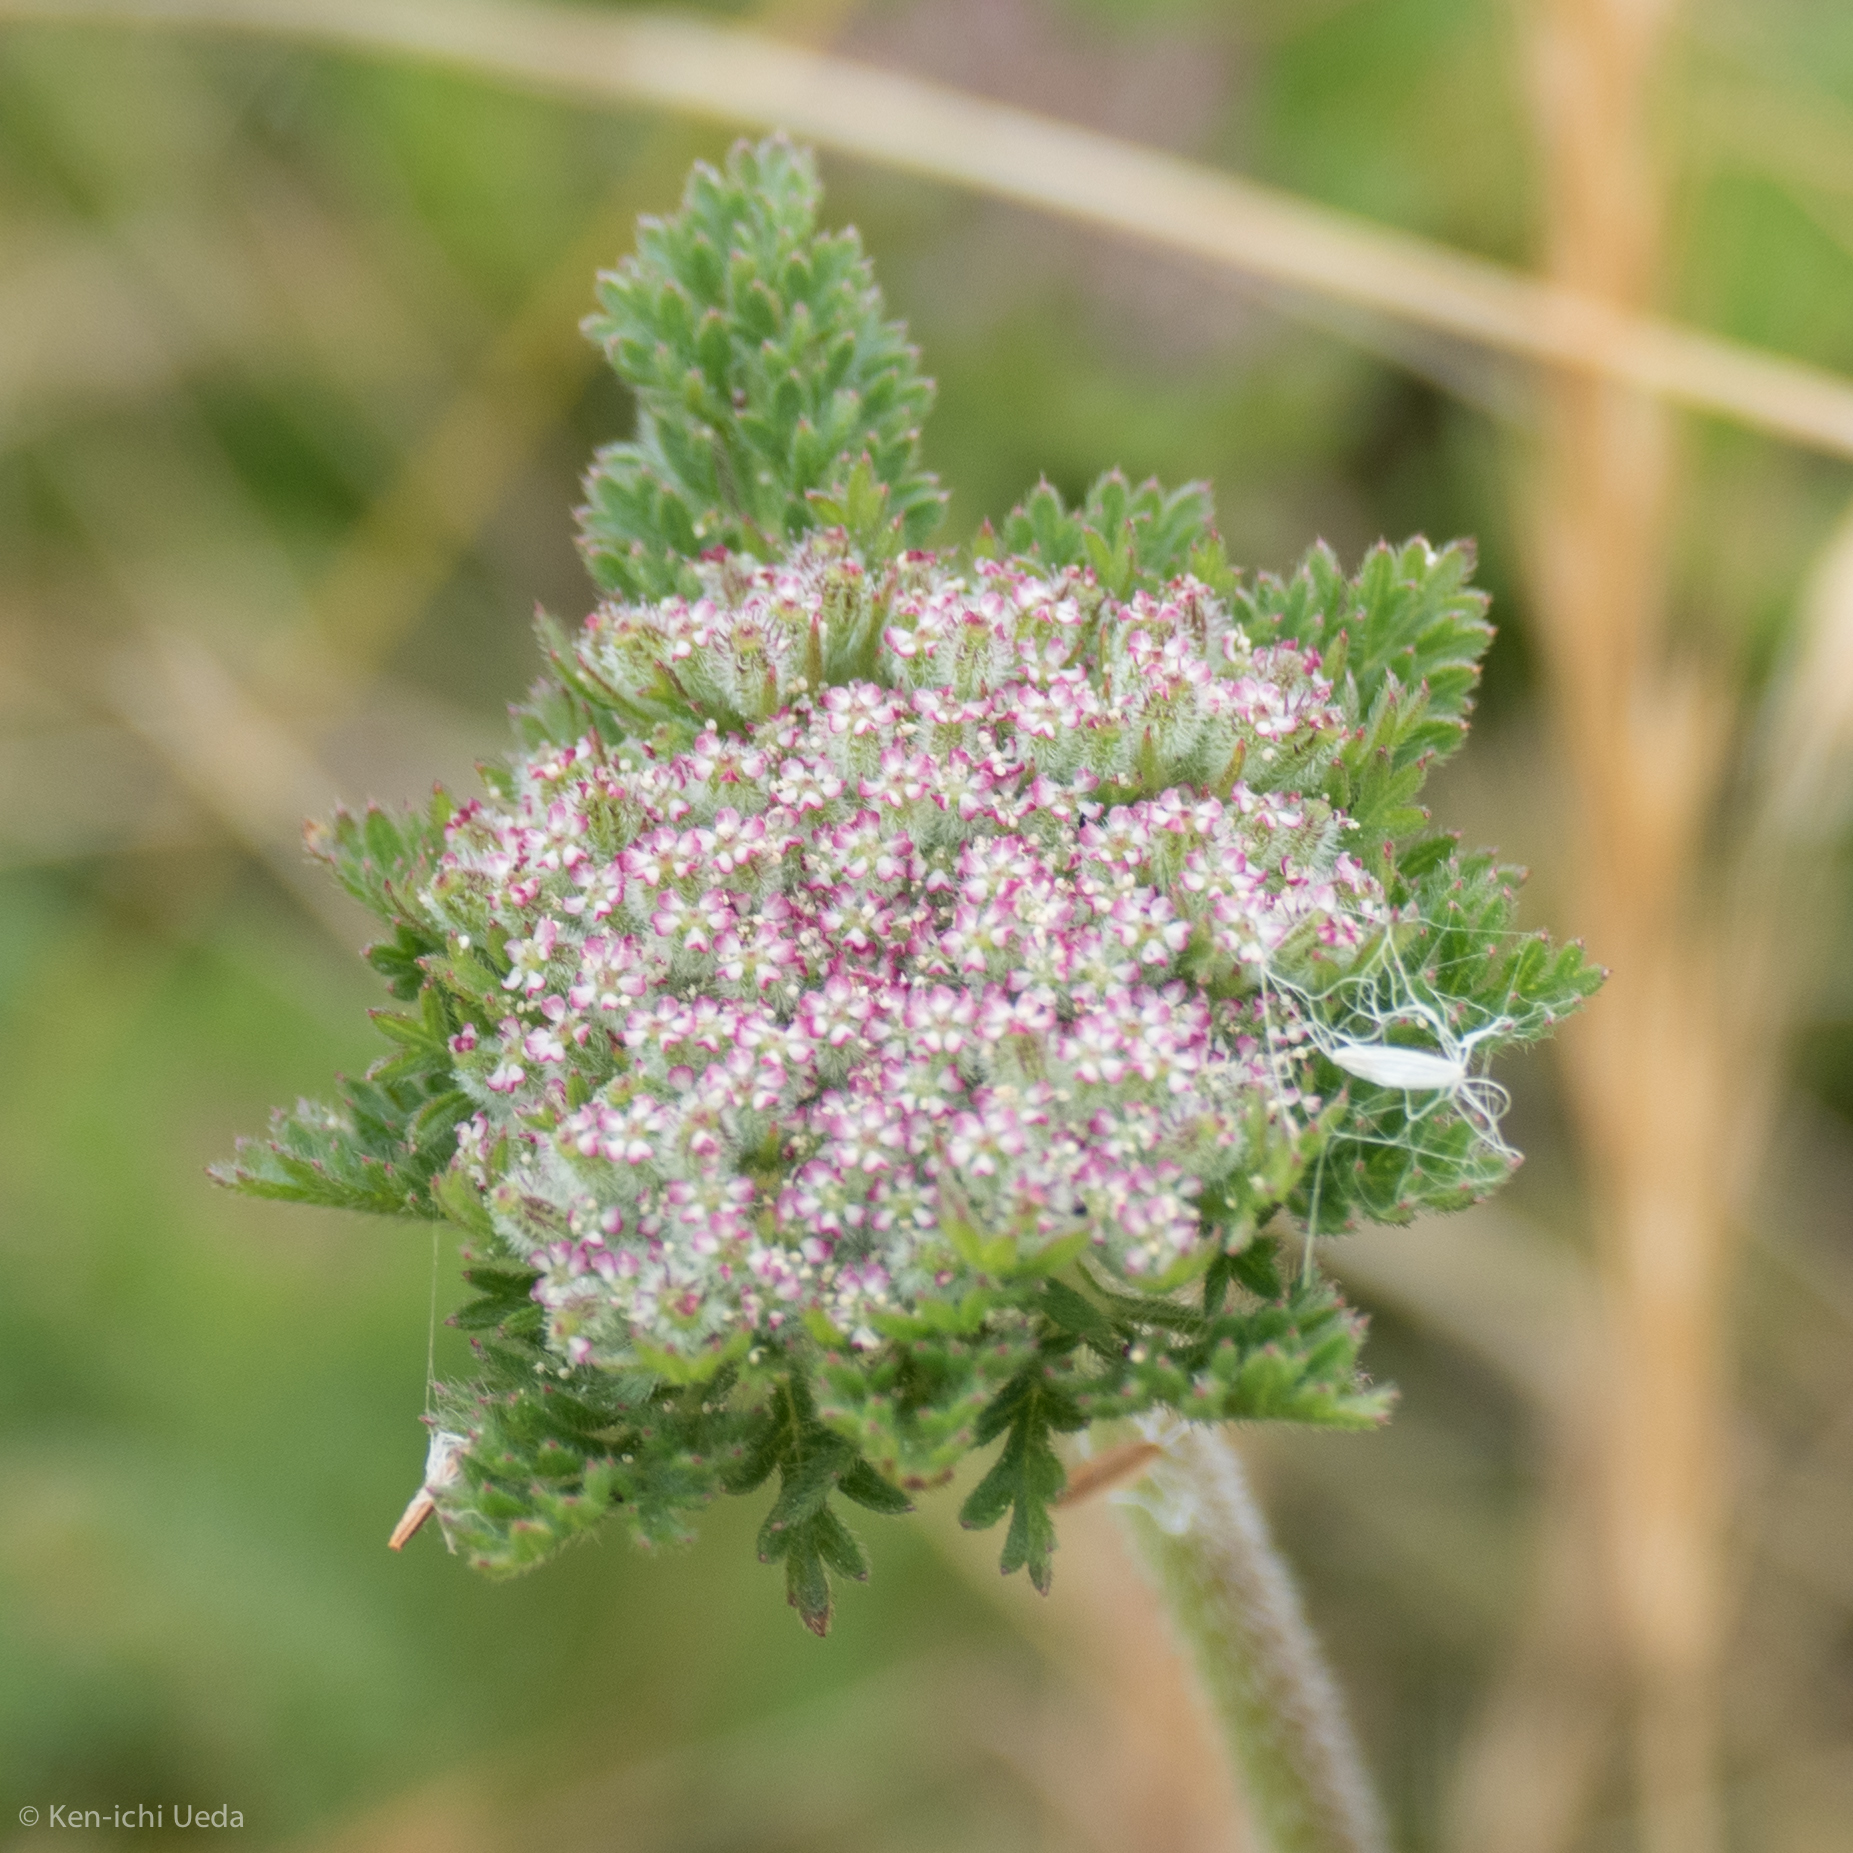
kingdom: Plantae
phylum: Tracheophyta
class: Magnoliopsida
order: Apiales
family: Apiaceae
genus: Daucus
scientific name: Daucus pusillus
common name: Southwest wild carrot
